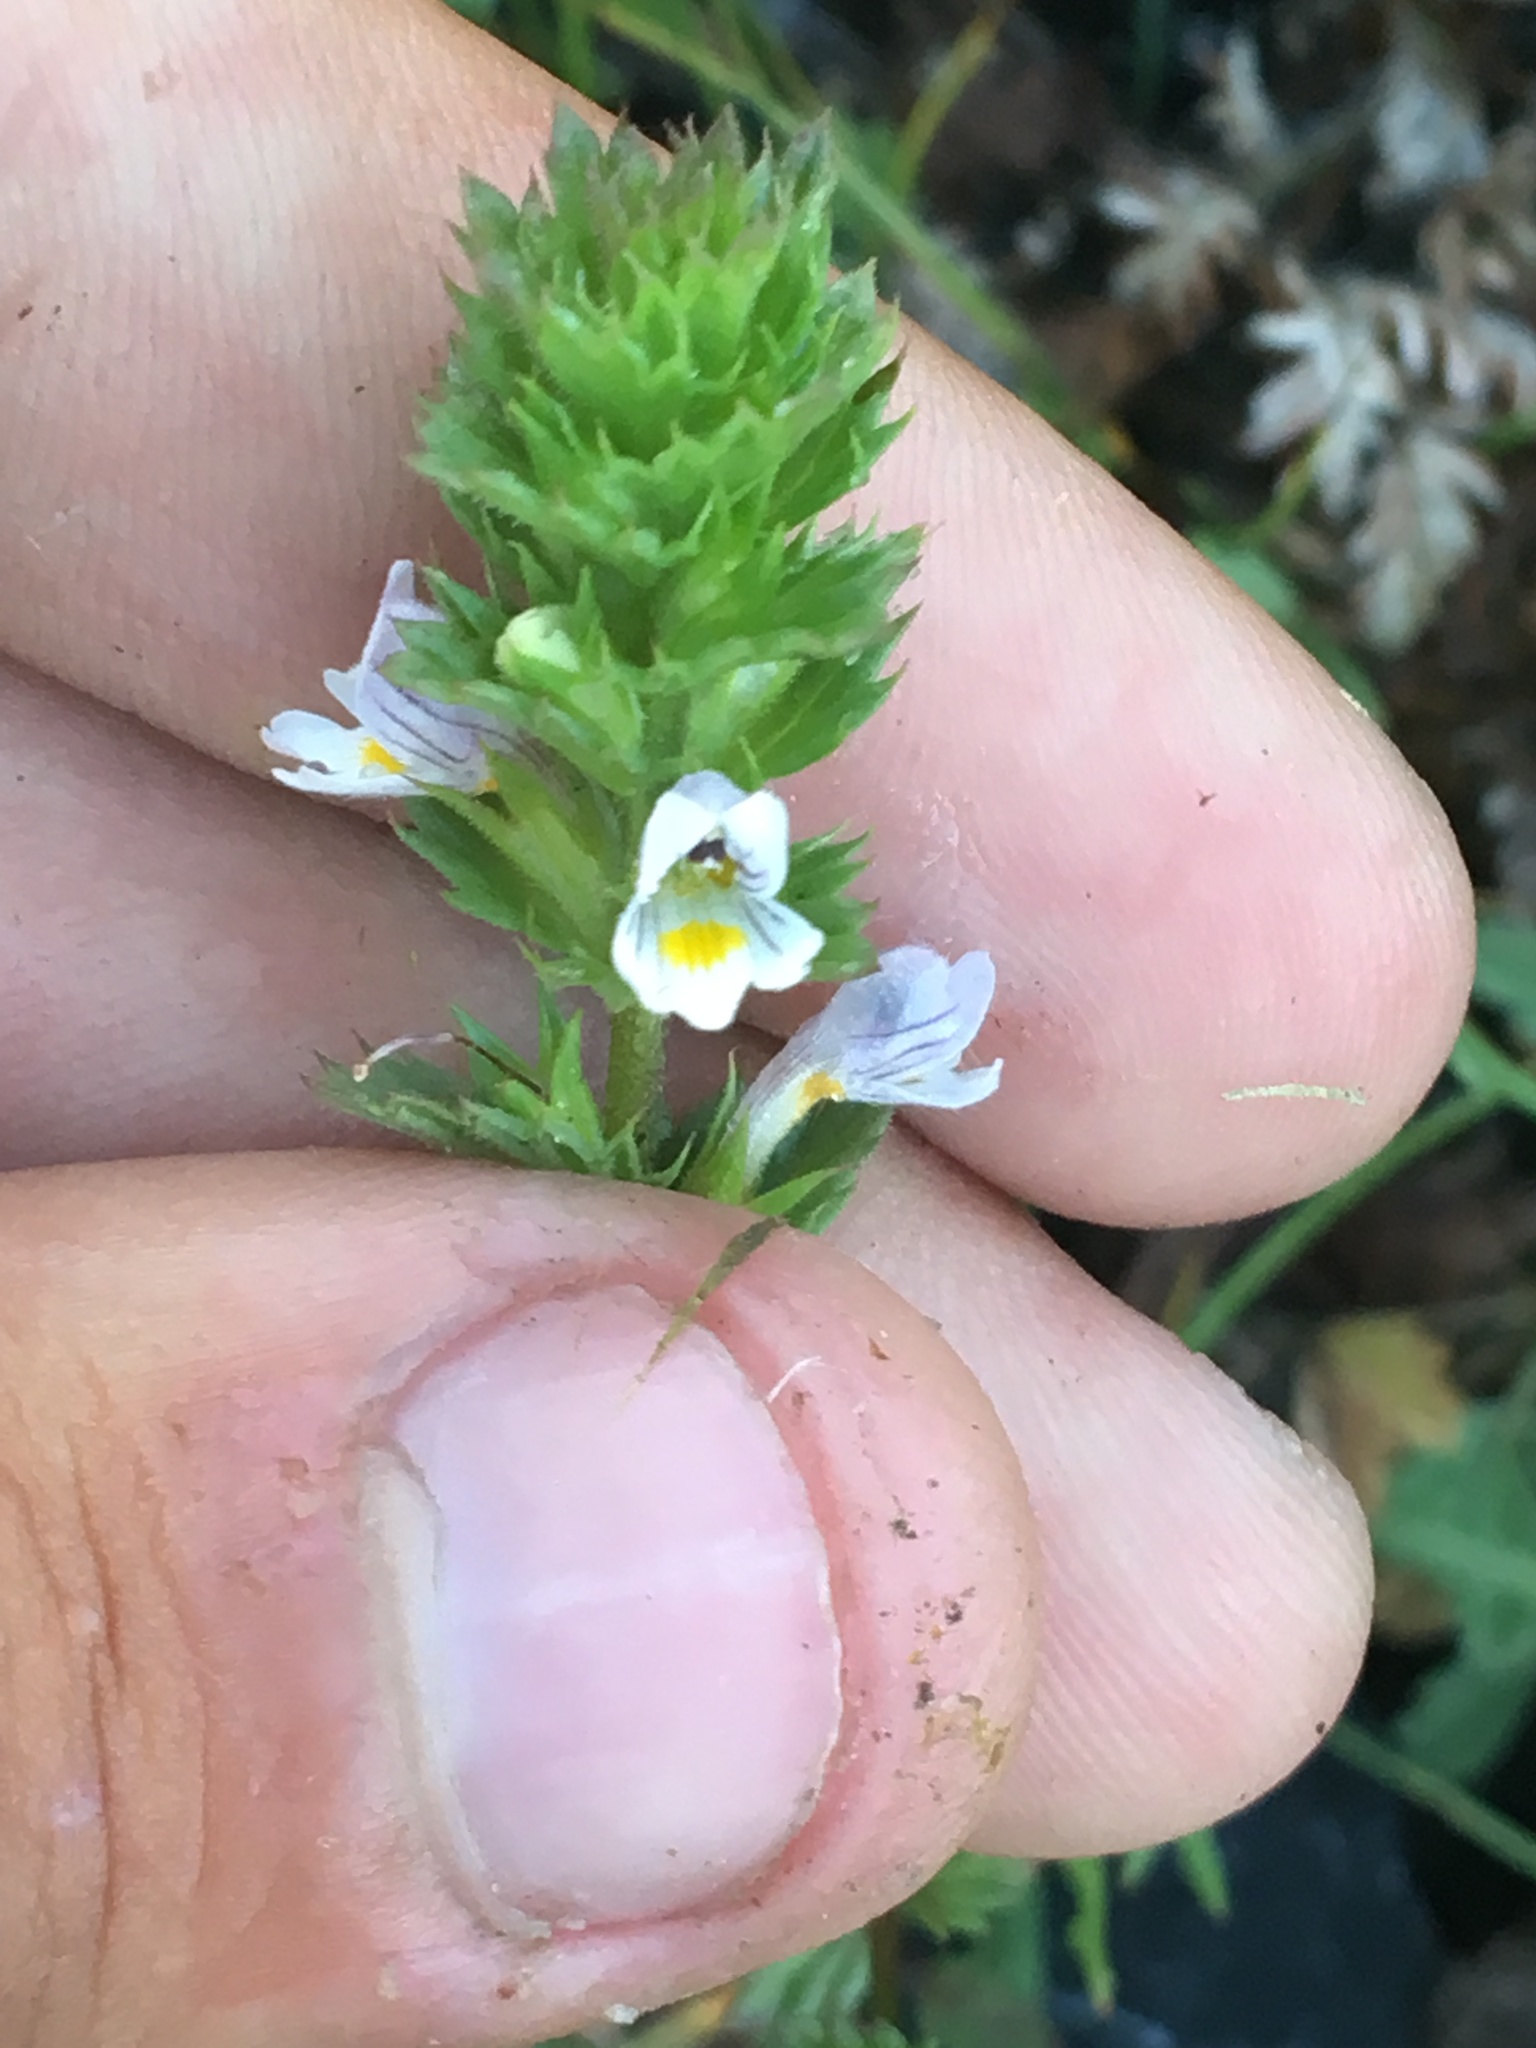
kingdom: Plantae
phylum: Tracheophyta
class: Magnoliopsida
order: Lamiales
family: Orobanchaceae
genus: Euphrasia
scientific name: Euphrasia pectinata
